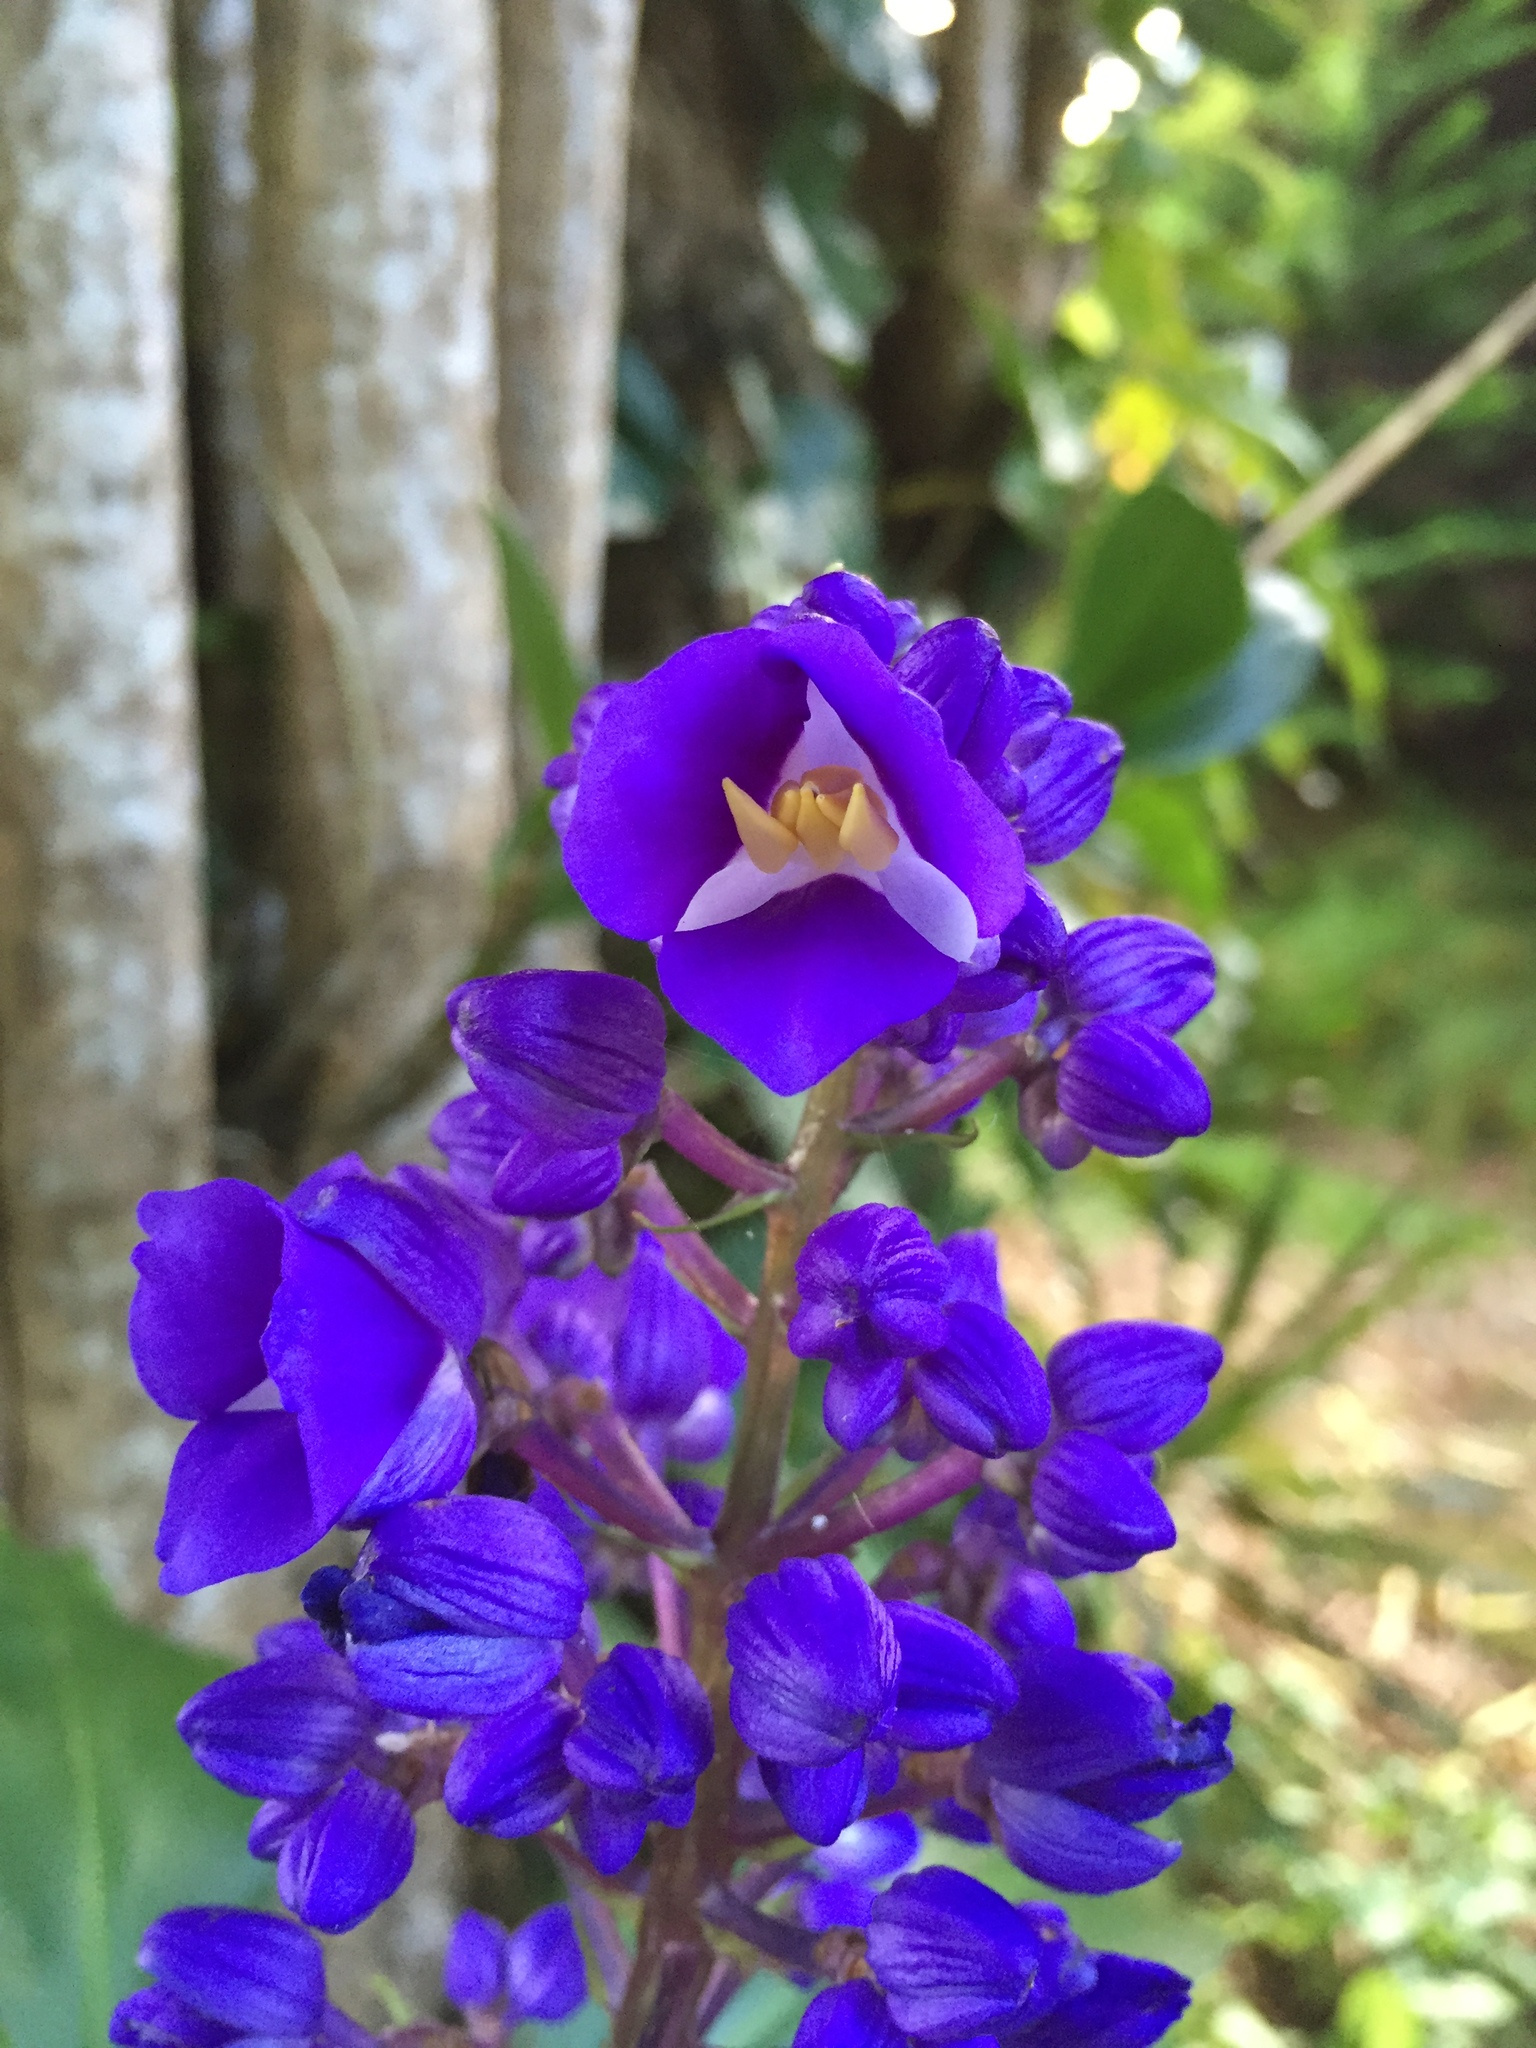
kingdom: Plantae
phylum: Tracheophyta
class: Liliopsida
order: Commelinales
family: Commelinaceae
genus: Dichorisandra
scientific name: Dichorisandra thyrsiflora
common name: Blue-ginger
